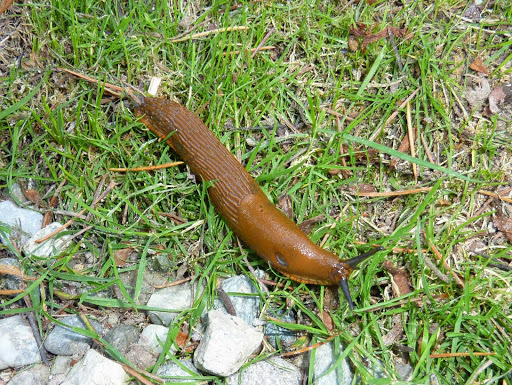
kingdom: Animalia
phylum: Mollusca
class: Gastropoda
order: Stylommatophora
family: Arionidae
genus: Arion
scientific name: Arion rufus
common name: Chocolate arion
